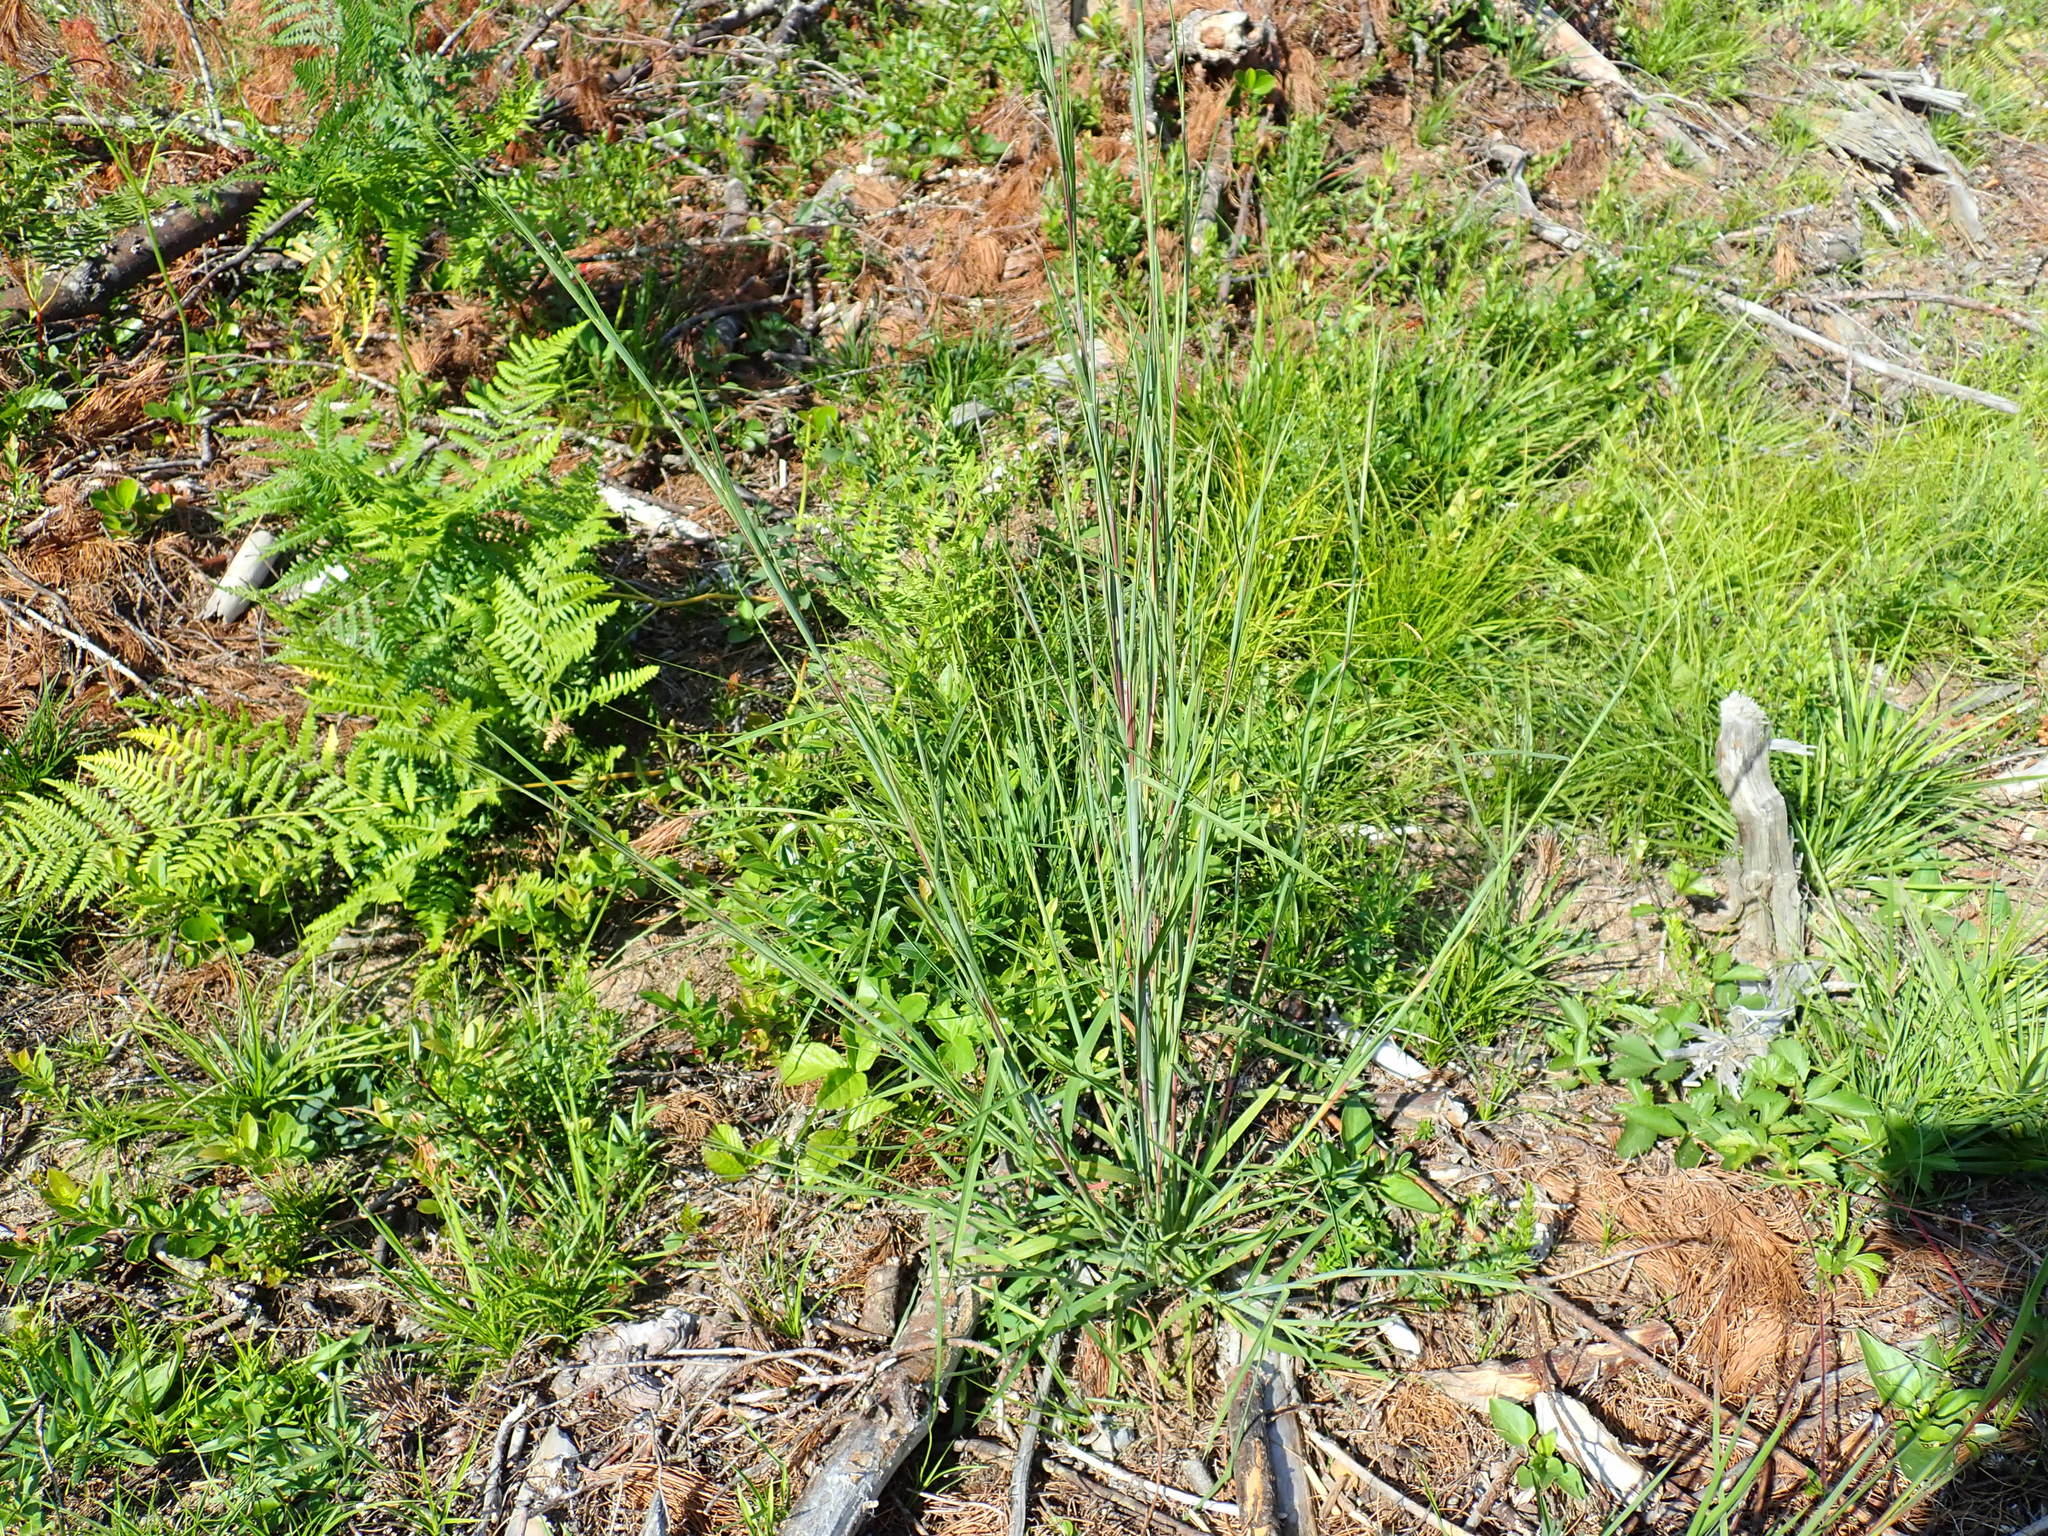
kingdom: Plantae
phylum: Tracheophyta
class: Liliopsida
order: Poales
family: Poaceae
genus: Schizachyrium
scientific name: Schizachyrium scoparium
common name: Little bluestem
